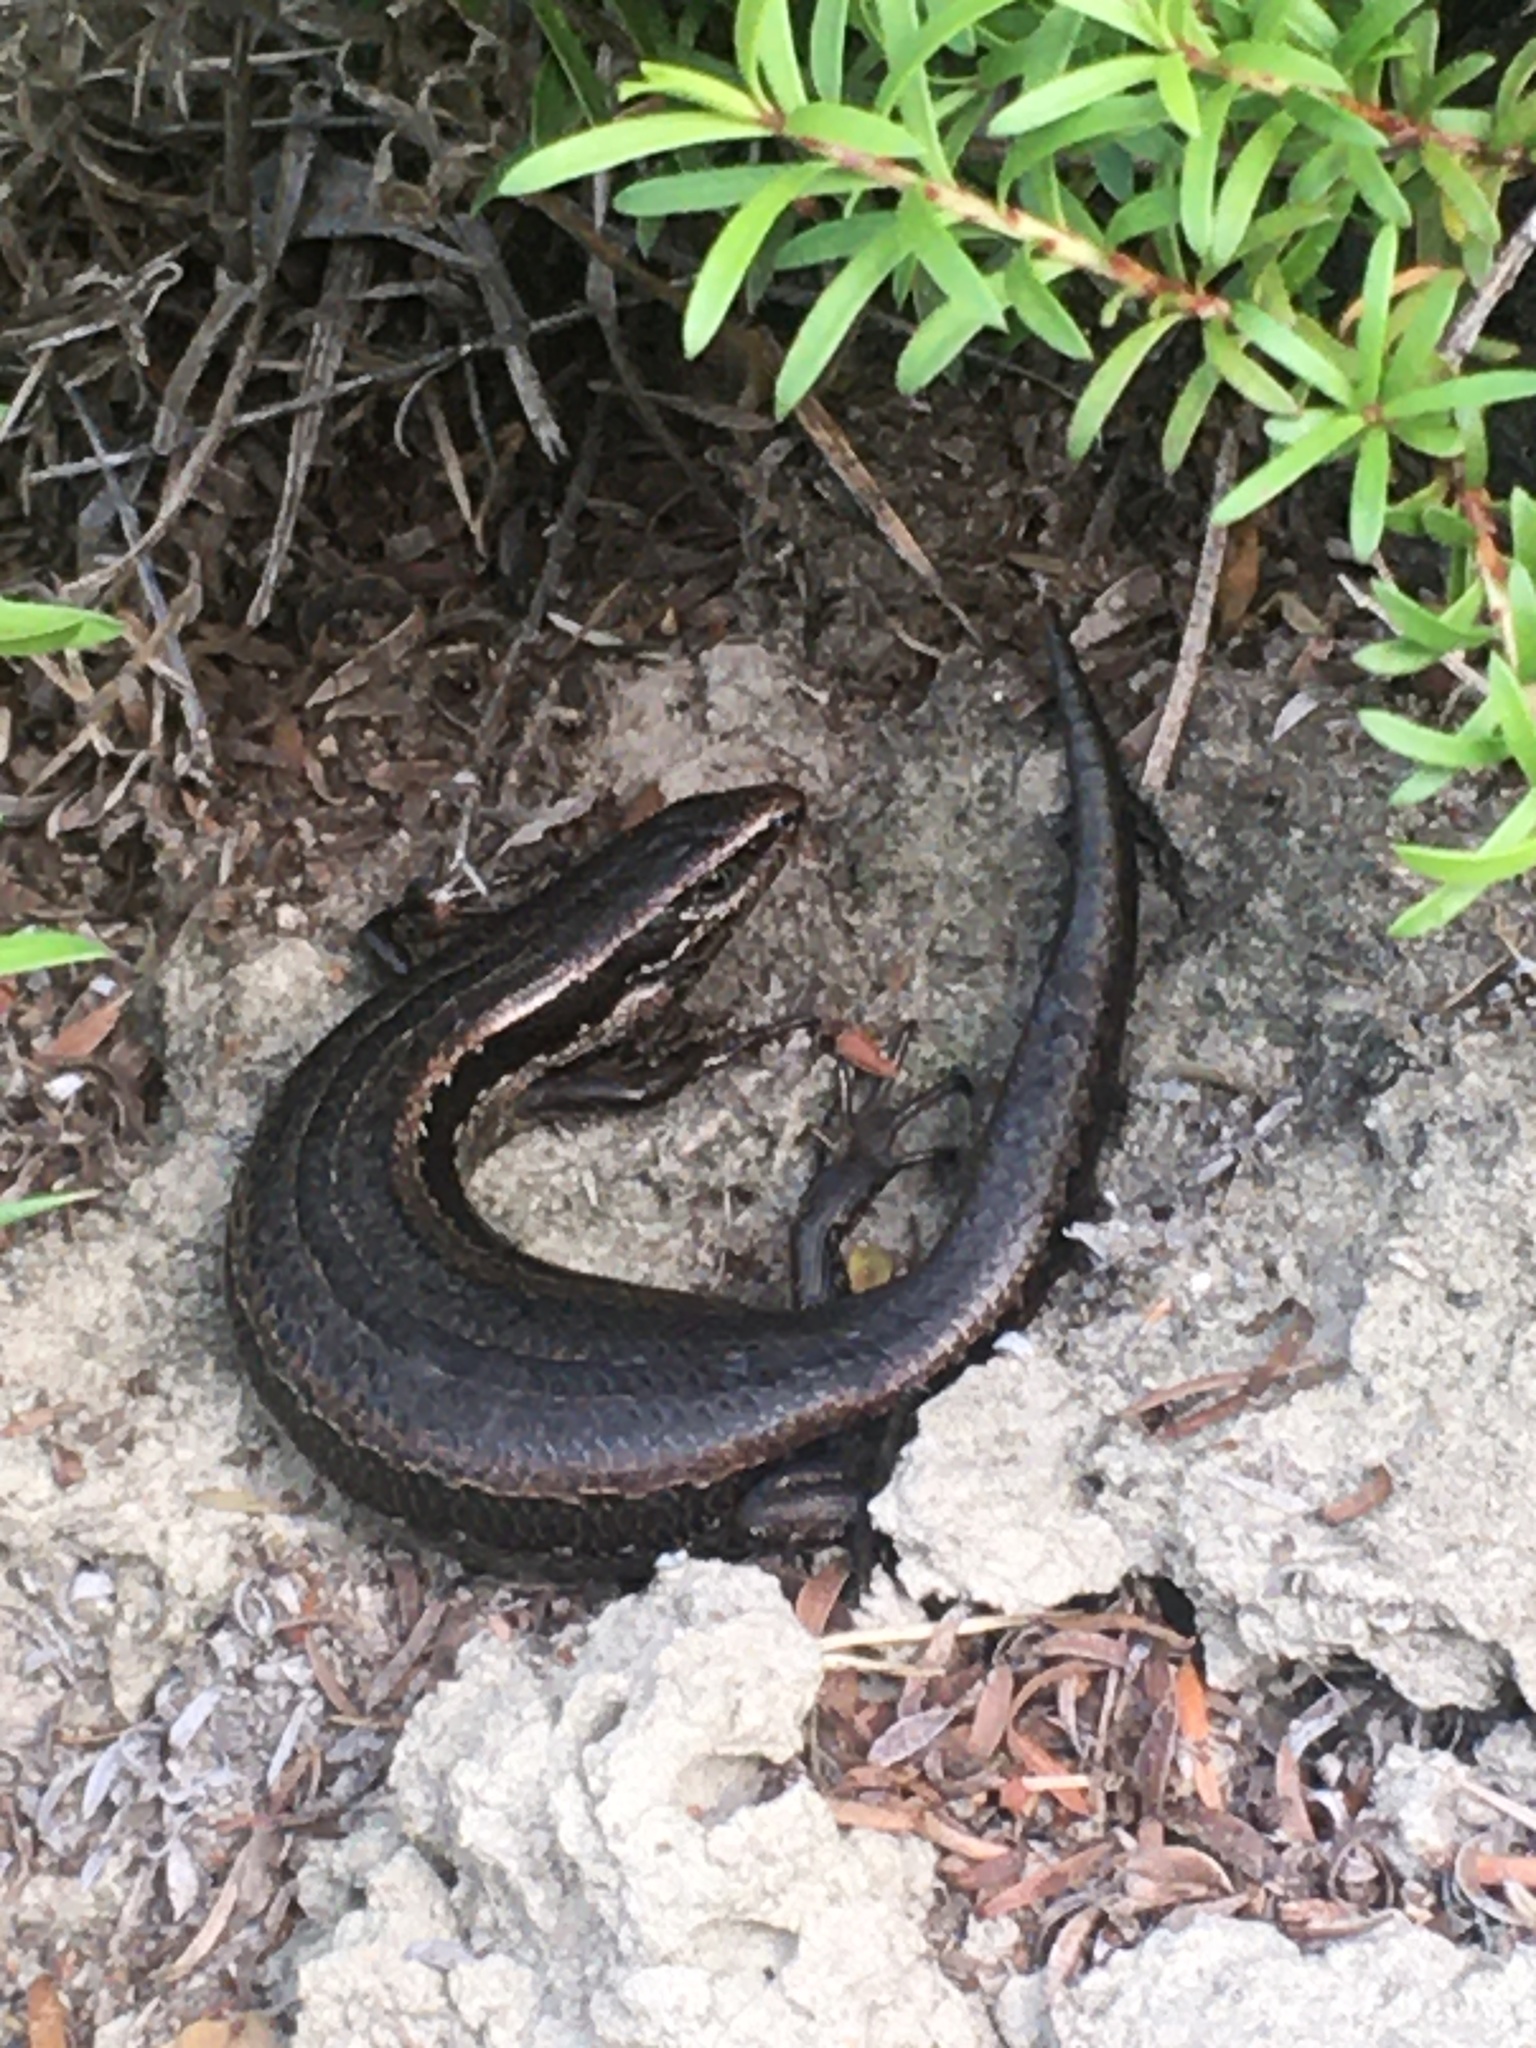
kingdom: Animalia
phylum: Chordata
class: Squamata
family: Scincidae
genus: Oligosoma
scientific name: Oligosoma polychroma
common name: Common new zealand skink
